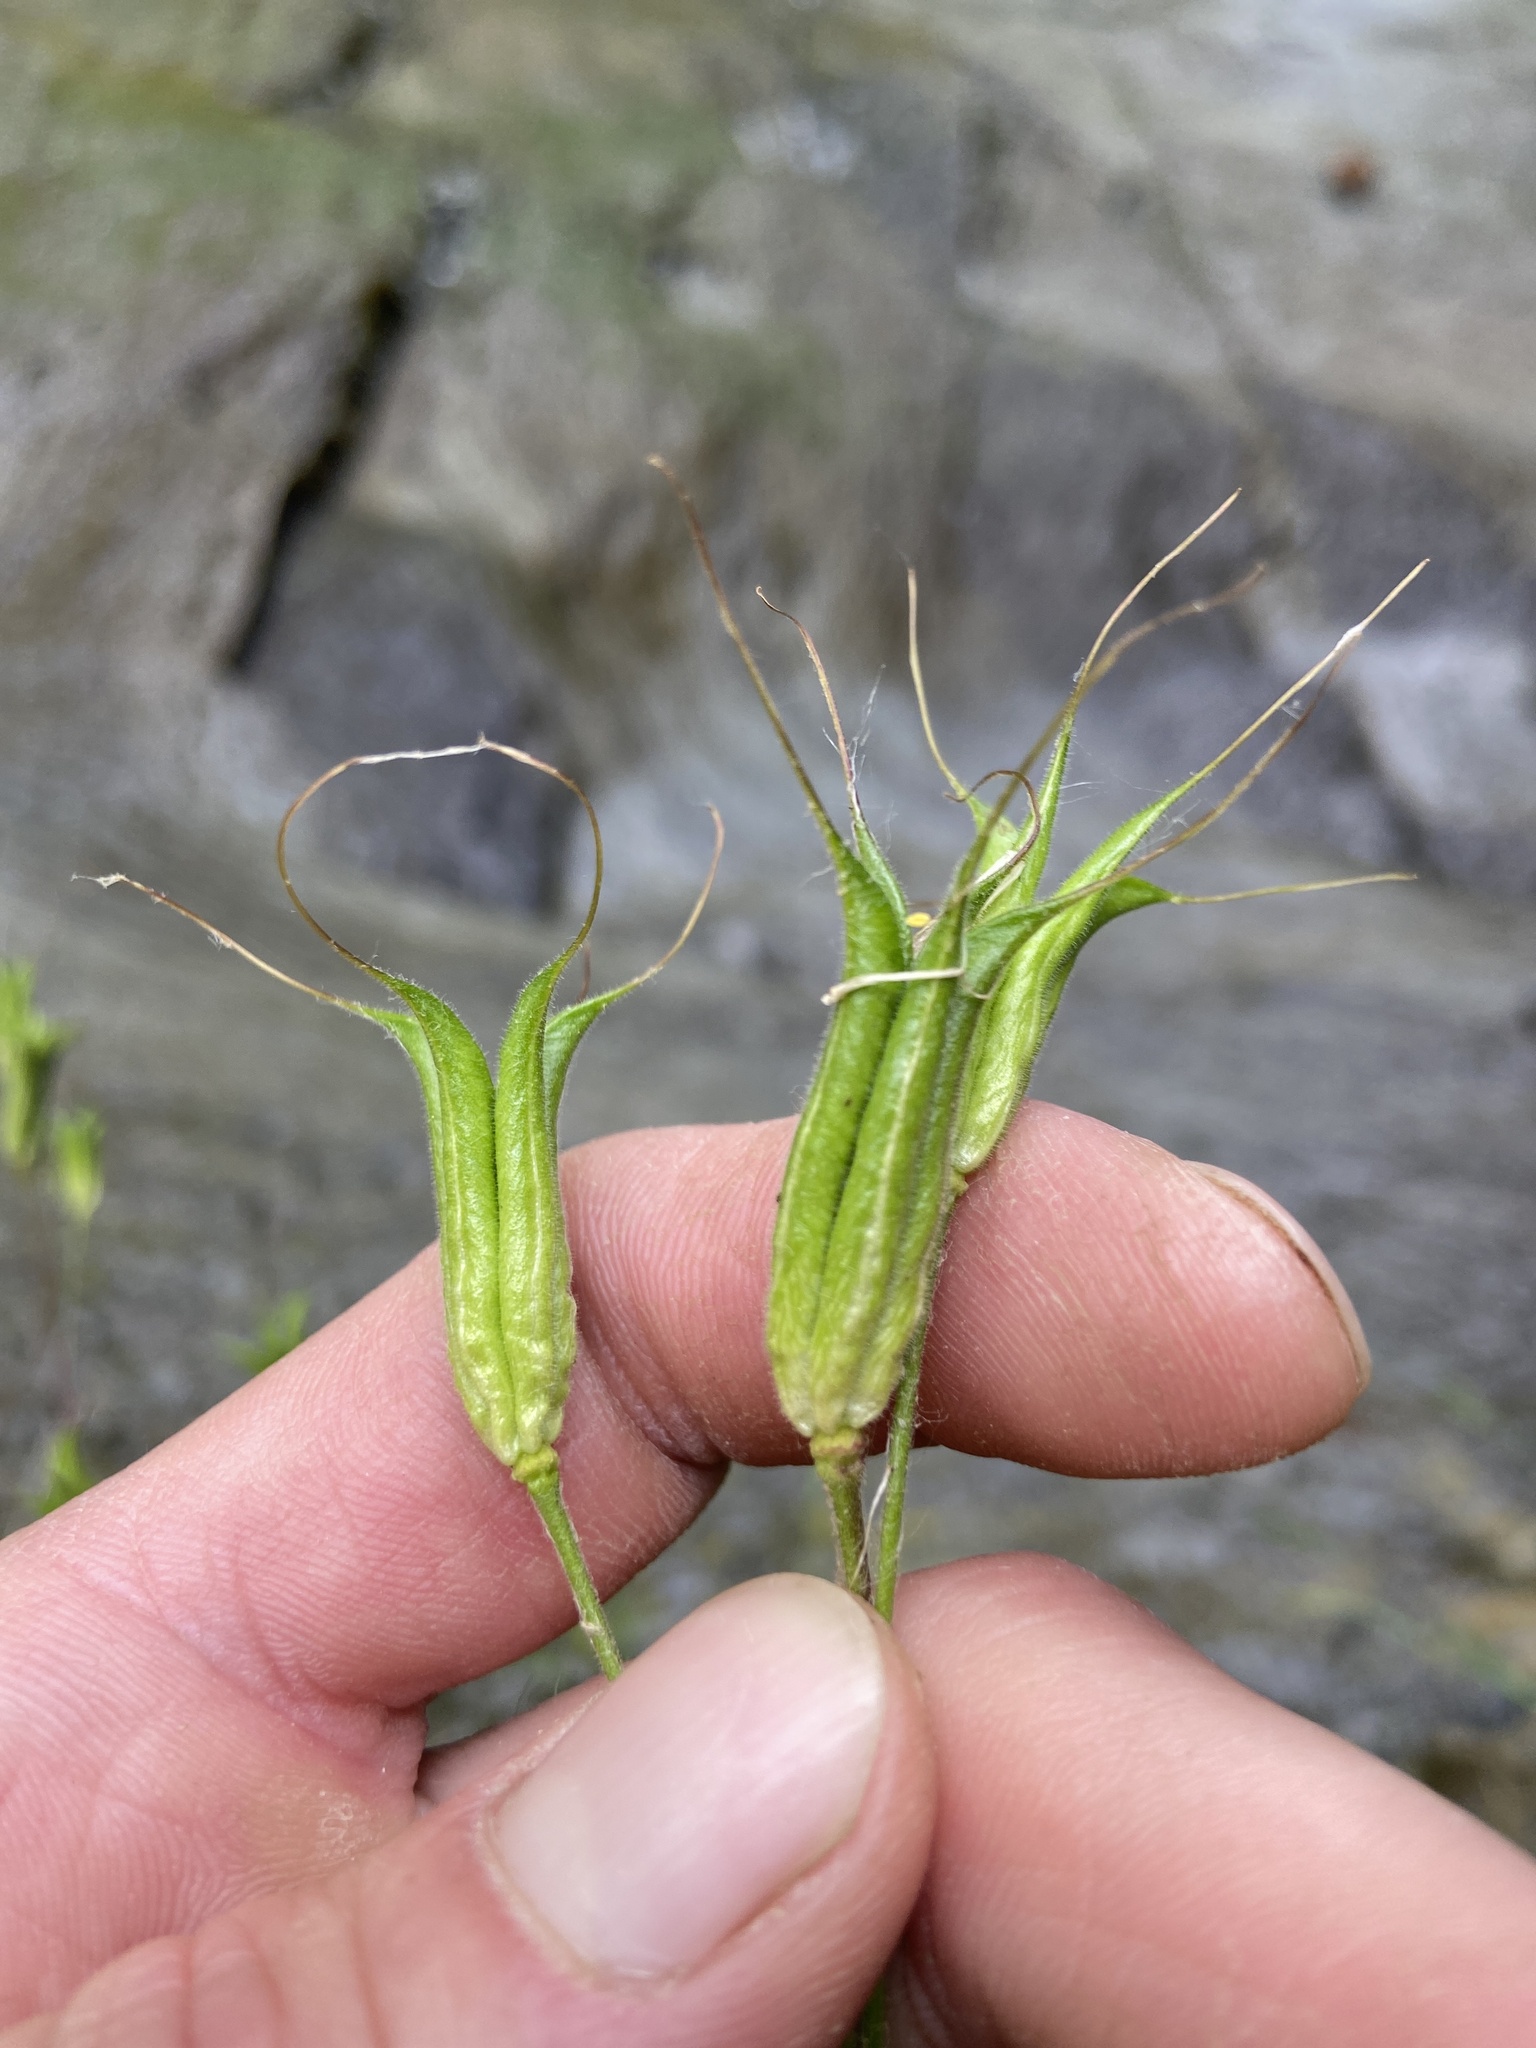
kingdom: Plantae
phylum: Tracheophyta
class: Magnoliopsida
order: Ranunculales
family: Ranunculaceae
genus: Aquilegia
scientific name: Aquilegia canadensis
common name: American columbine
